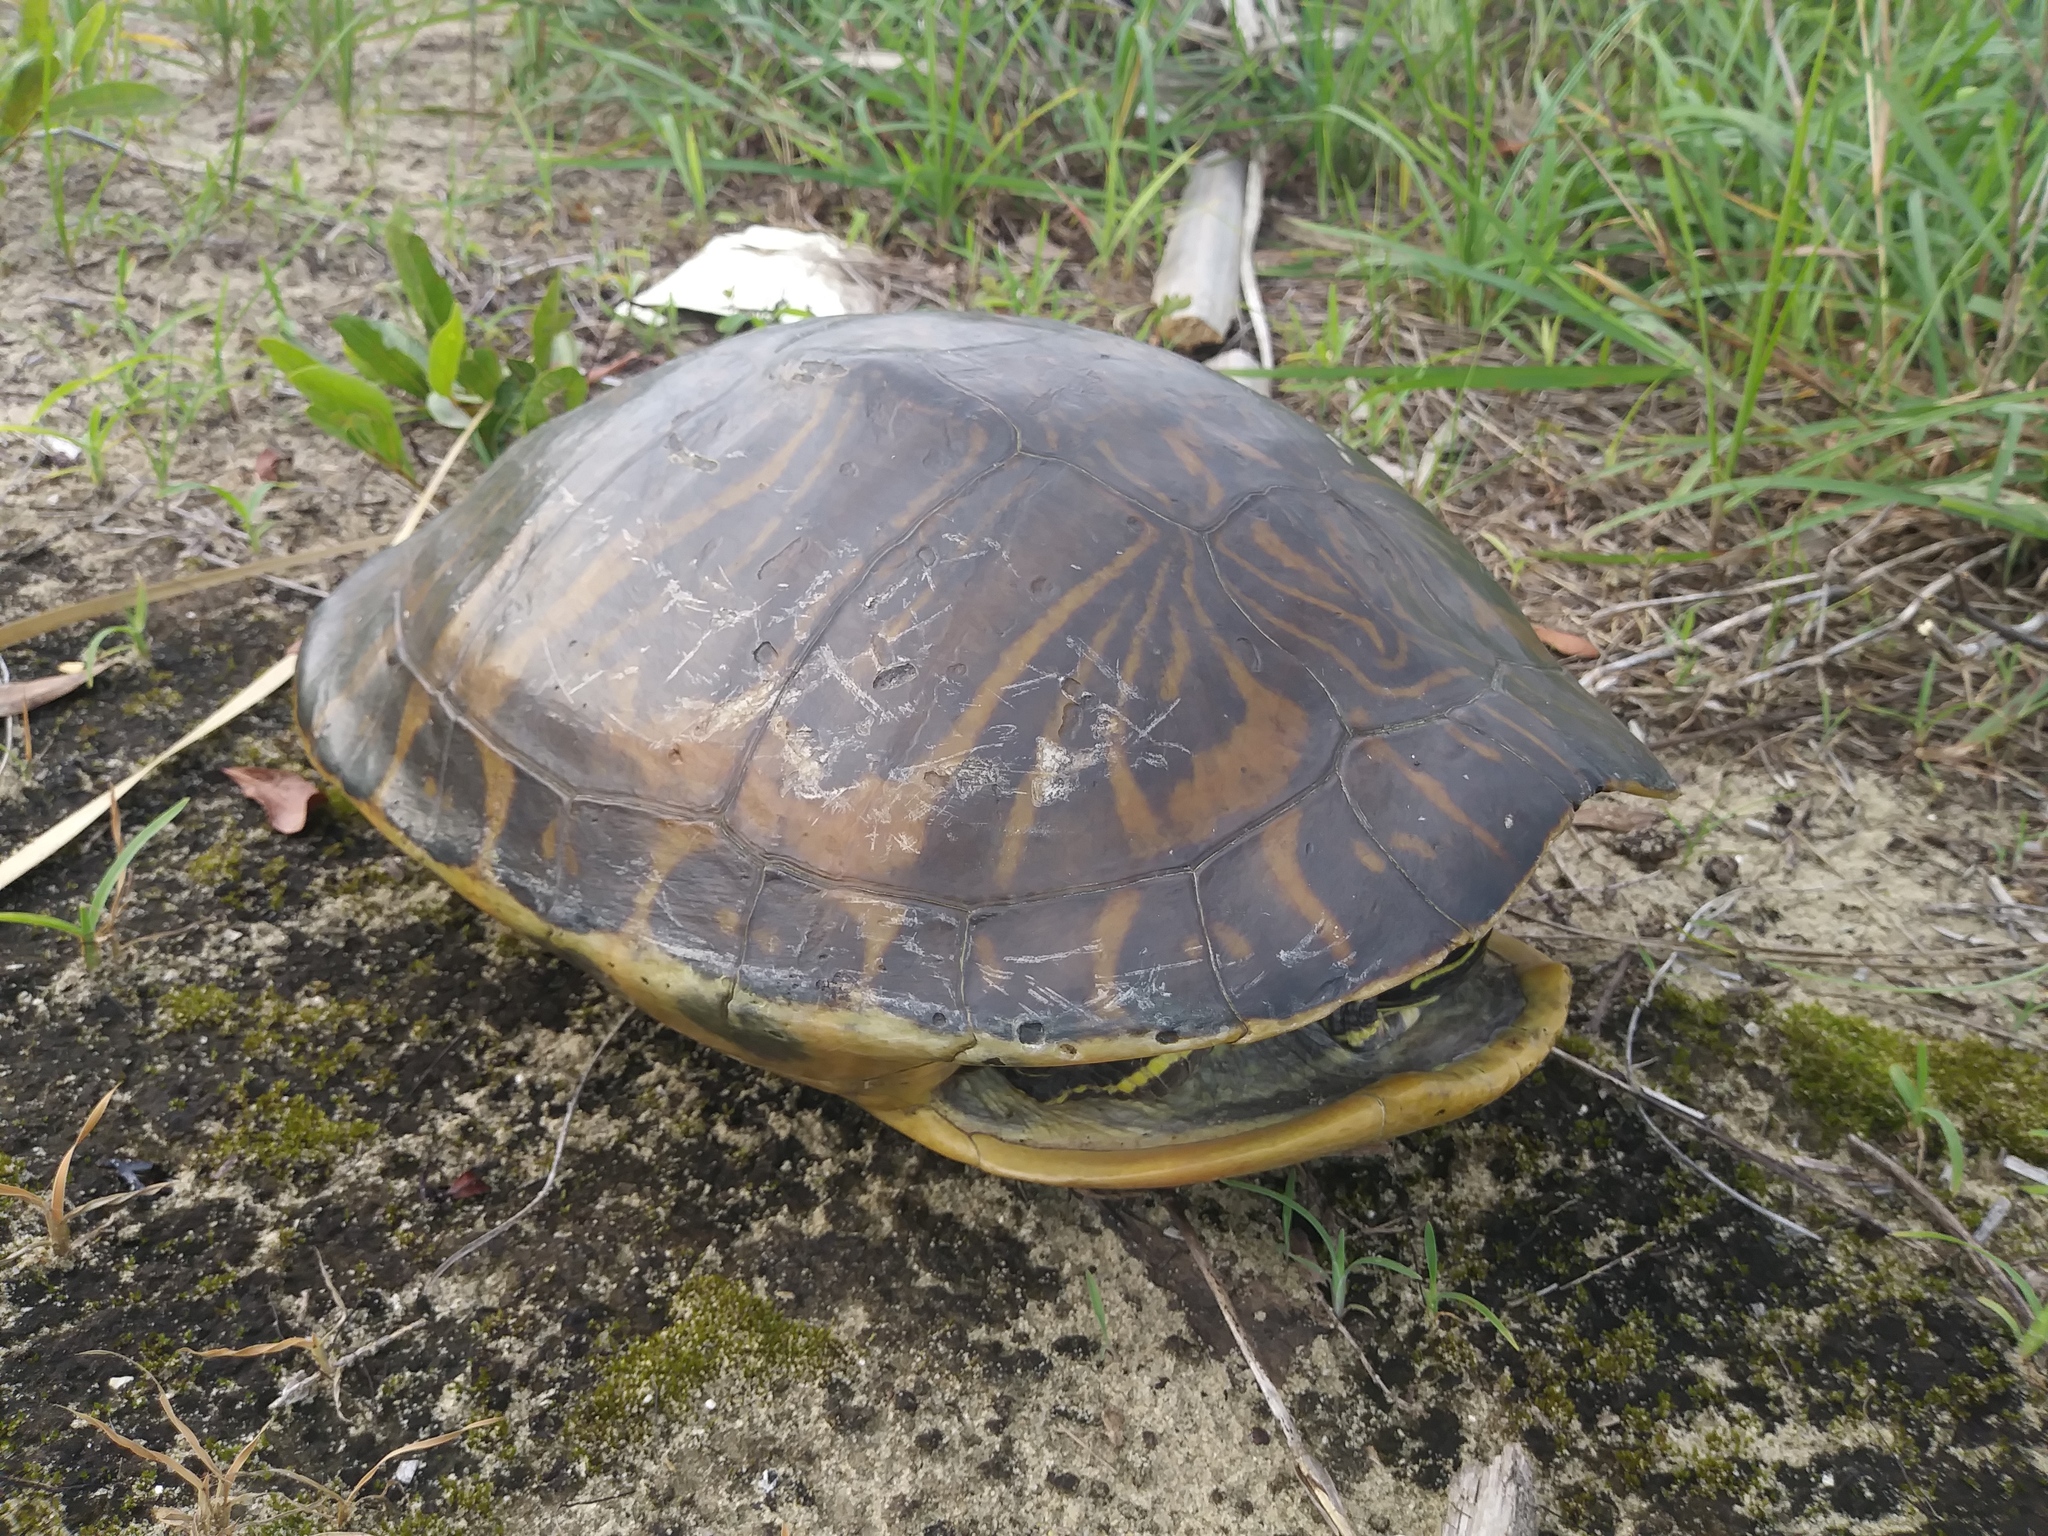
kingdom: Animalia
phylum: Chordata
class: Testudines
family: Emydidae
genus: Pseudemys
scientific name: Pseudemys peninsularis
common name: Peninsula cooter
